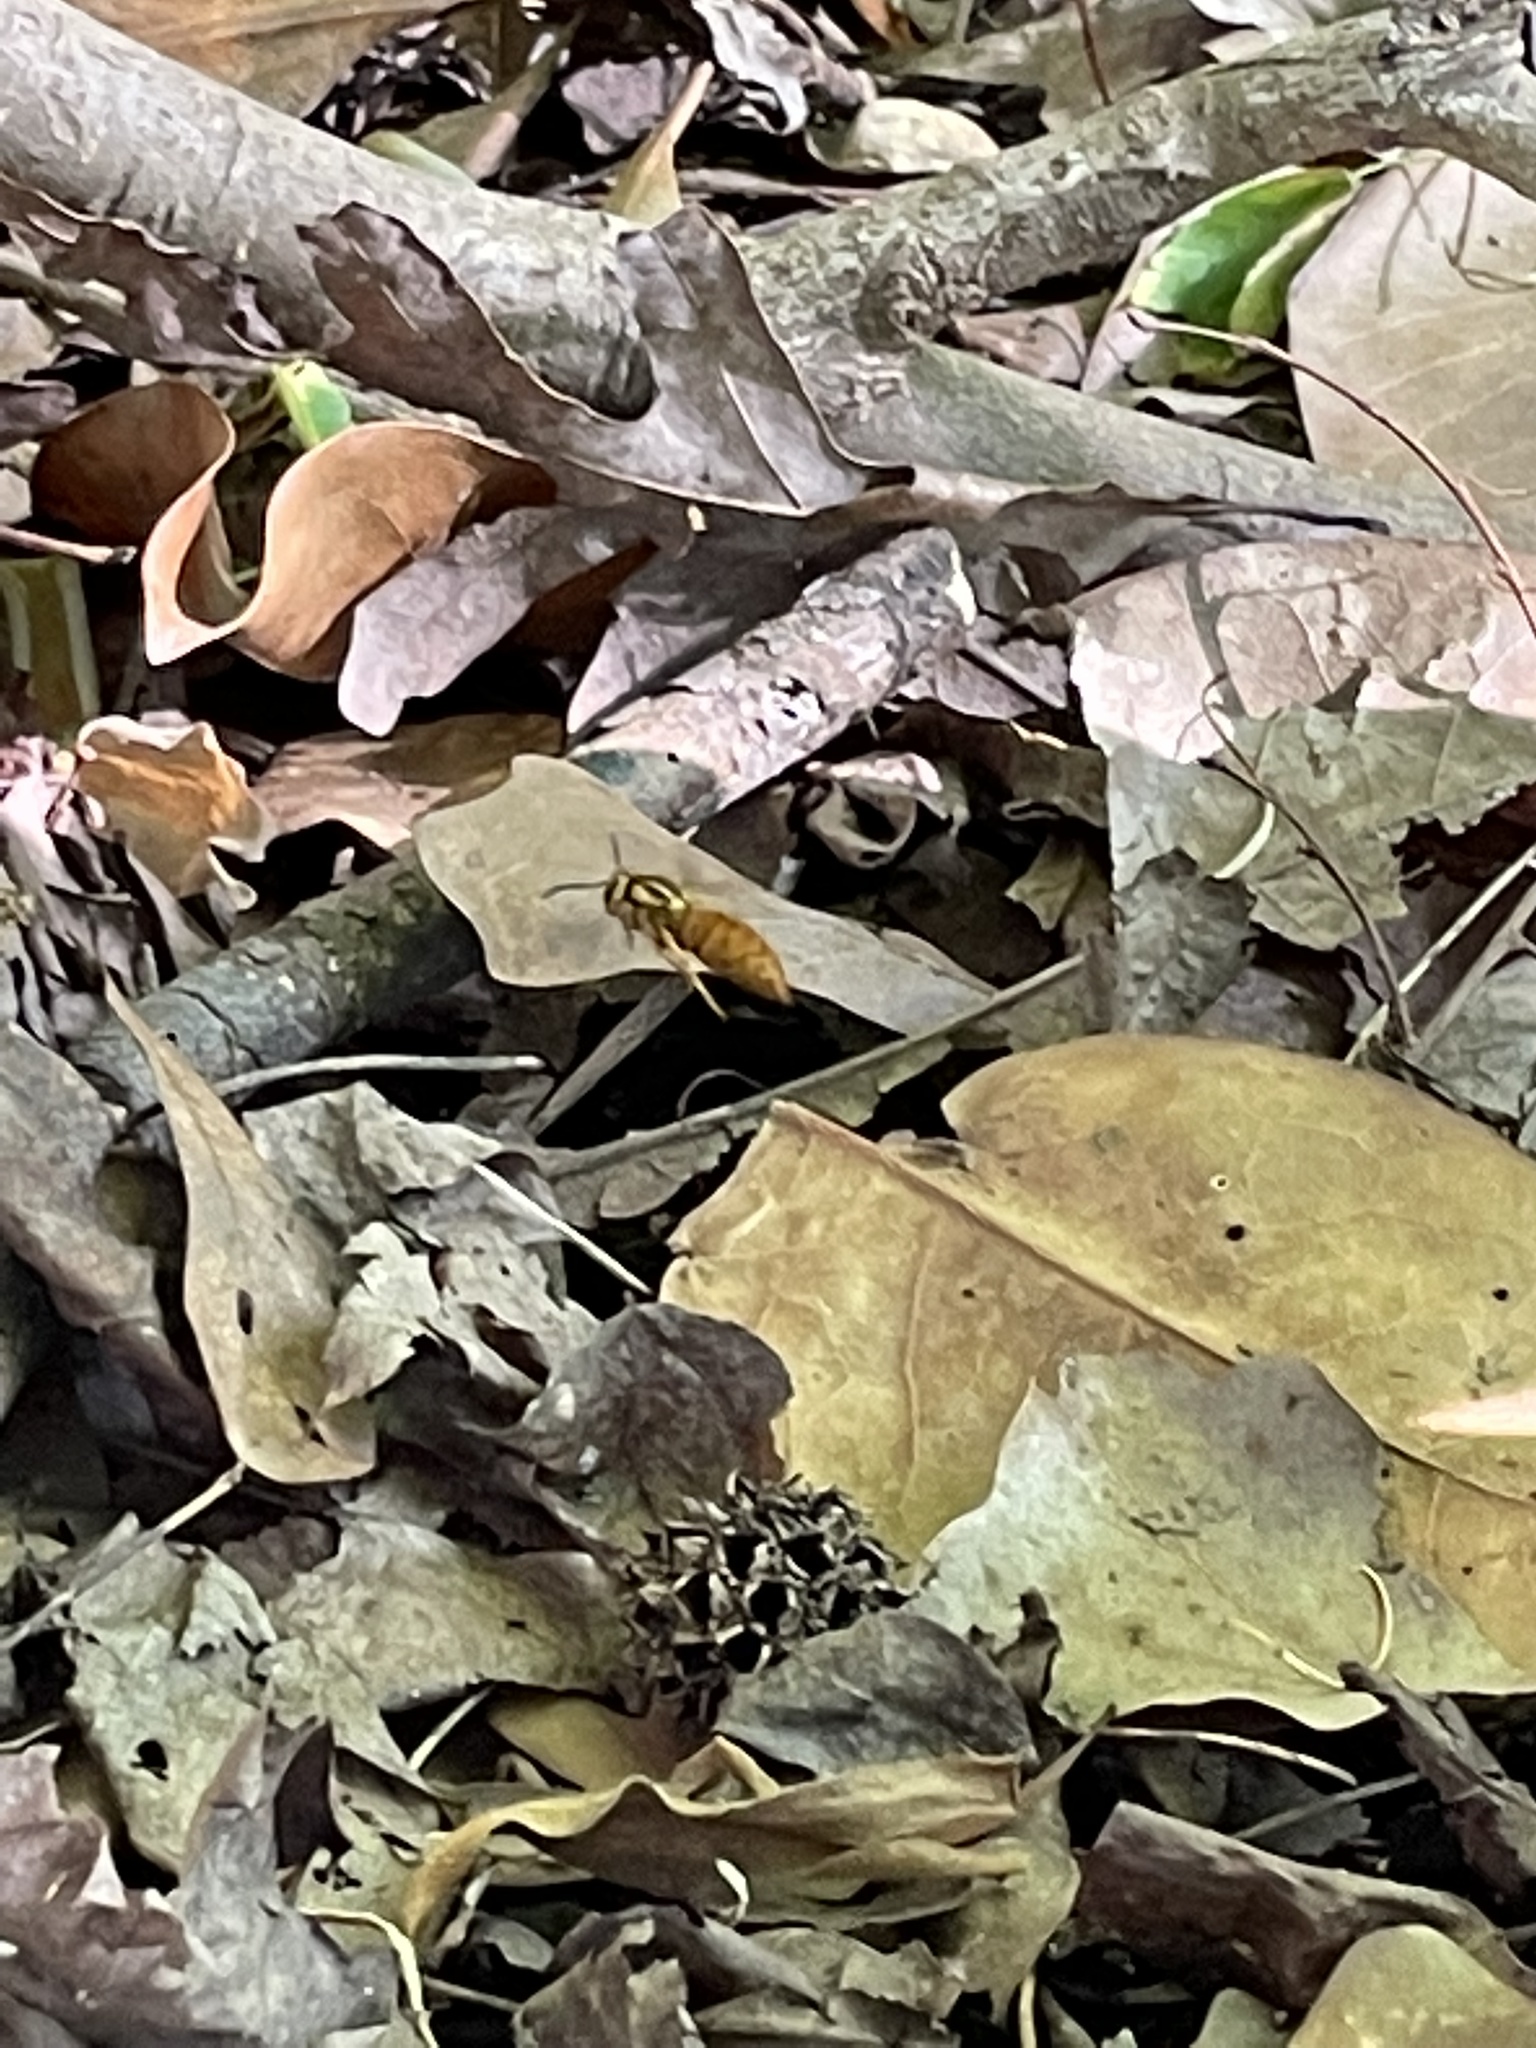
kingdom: Animalia
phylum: Arthropoda
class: Insecta
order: Hymenoptera
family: Vespidae
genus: Vespula
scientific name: Vespula squamosa
